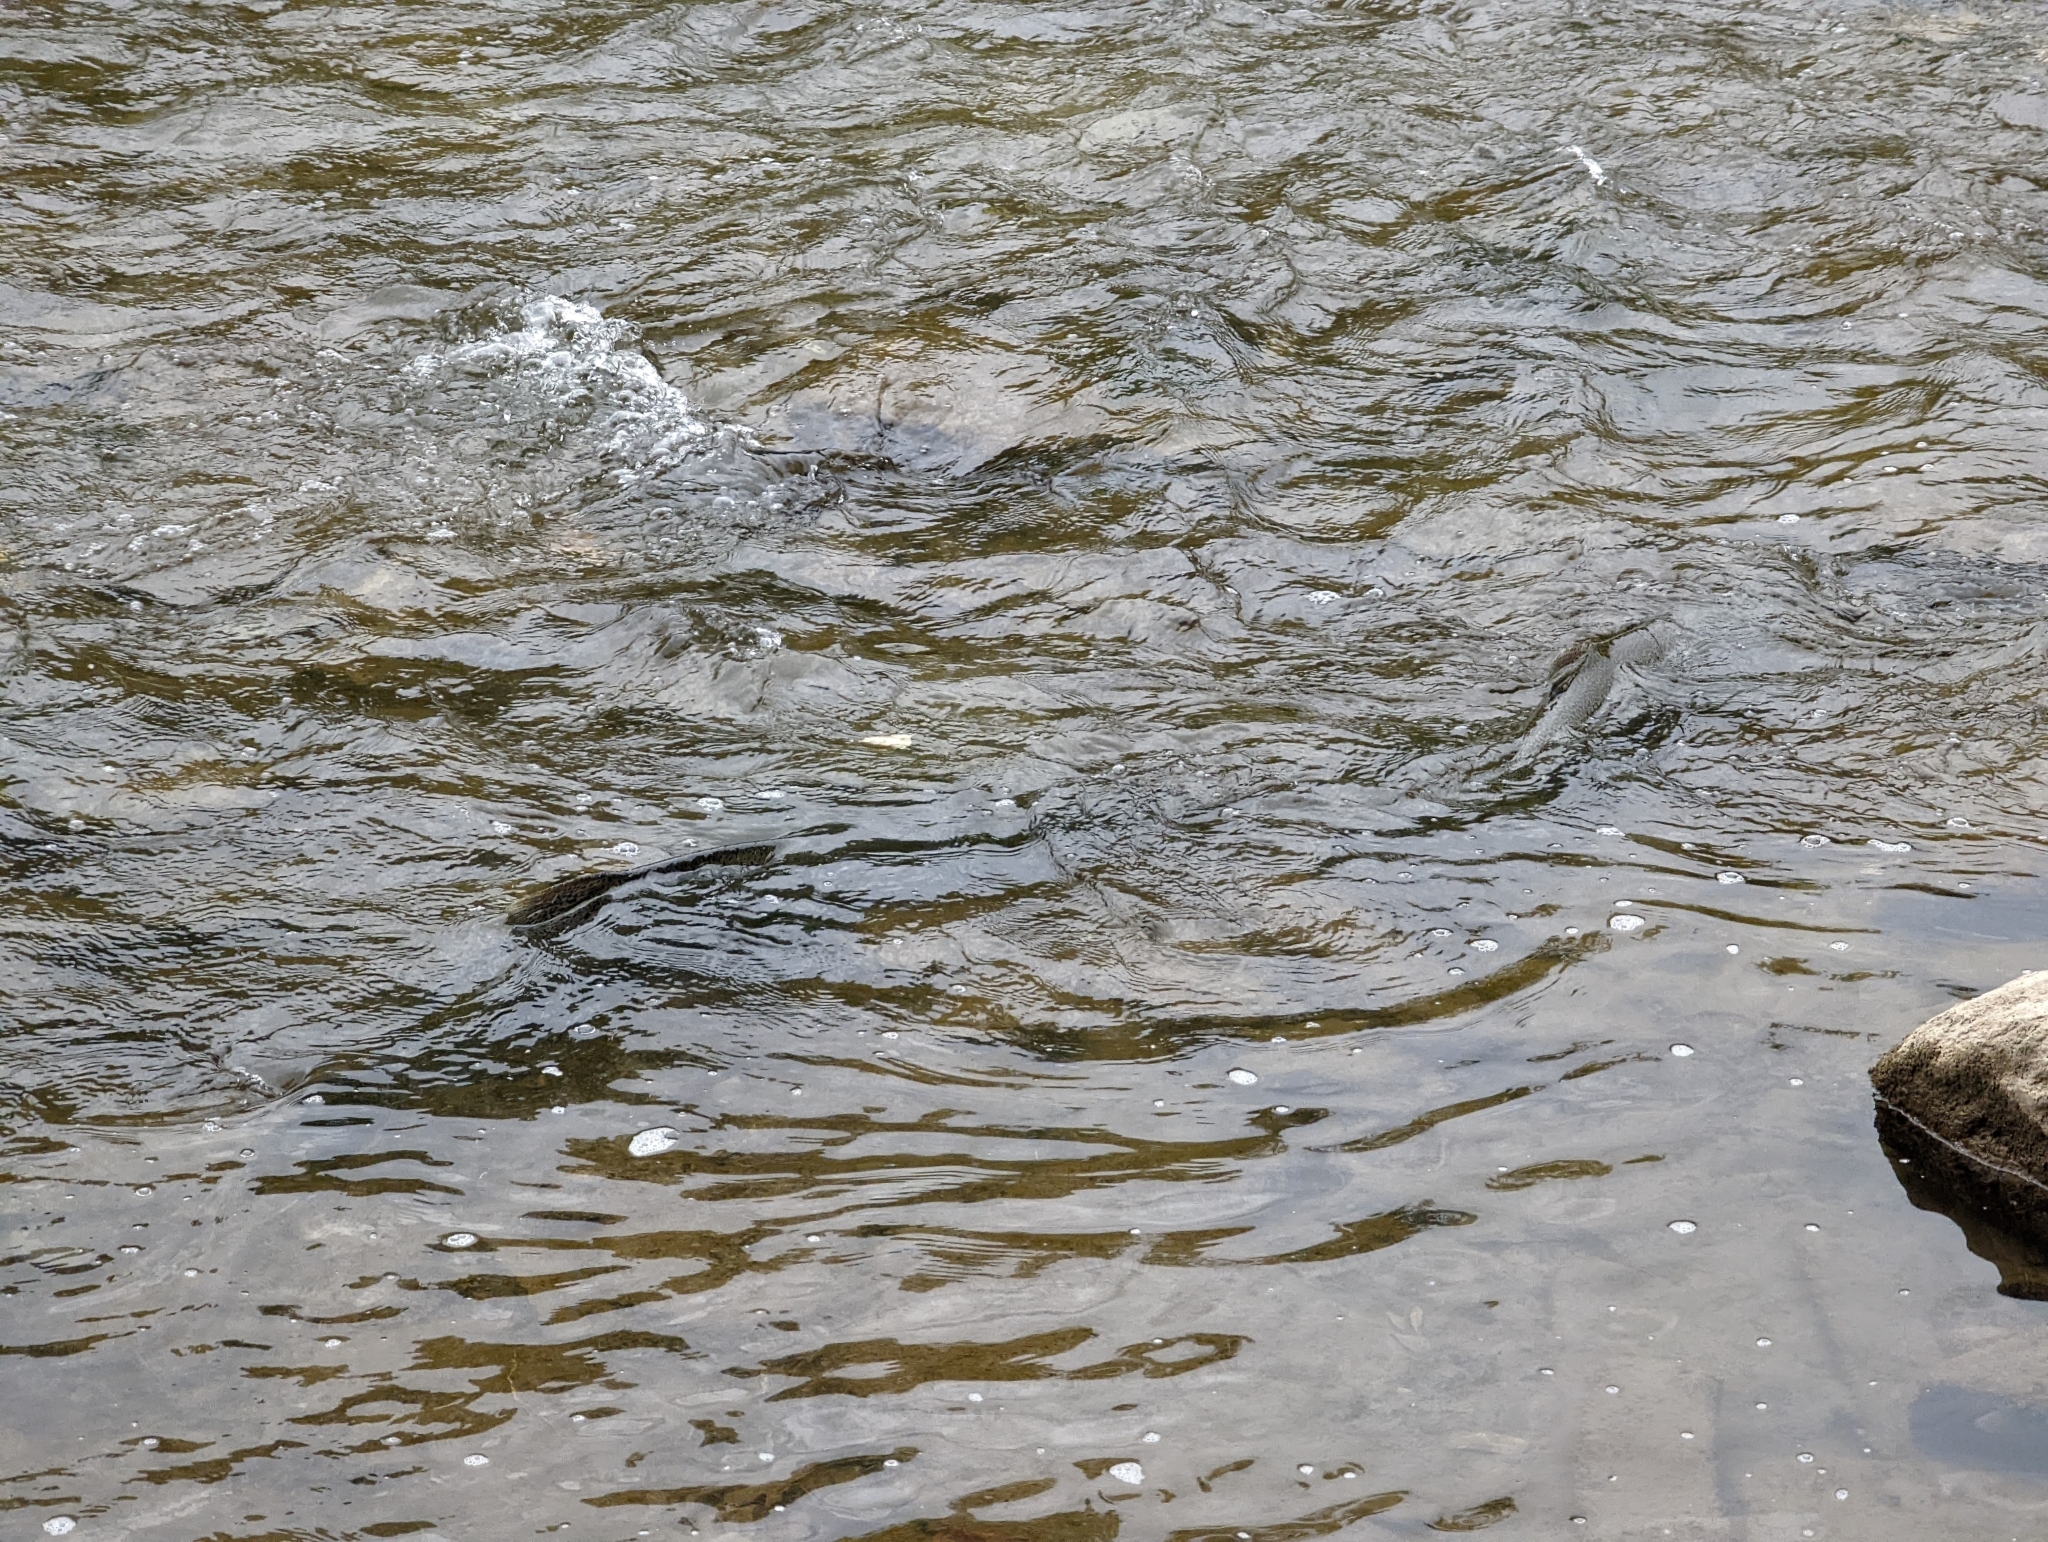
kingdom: Animalia
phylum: Chordata
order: Salmoniformes
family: Salmonidae
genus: Oncorhynchus
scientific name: Oncorhynchus tshawytscha
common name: Chinook salmon
